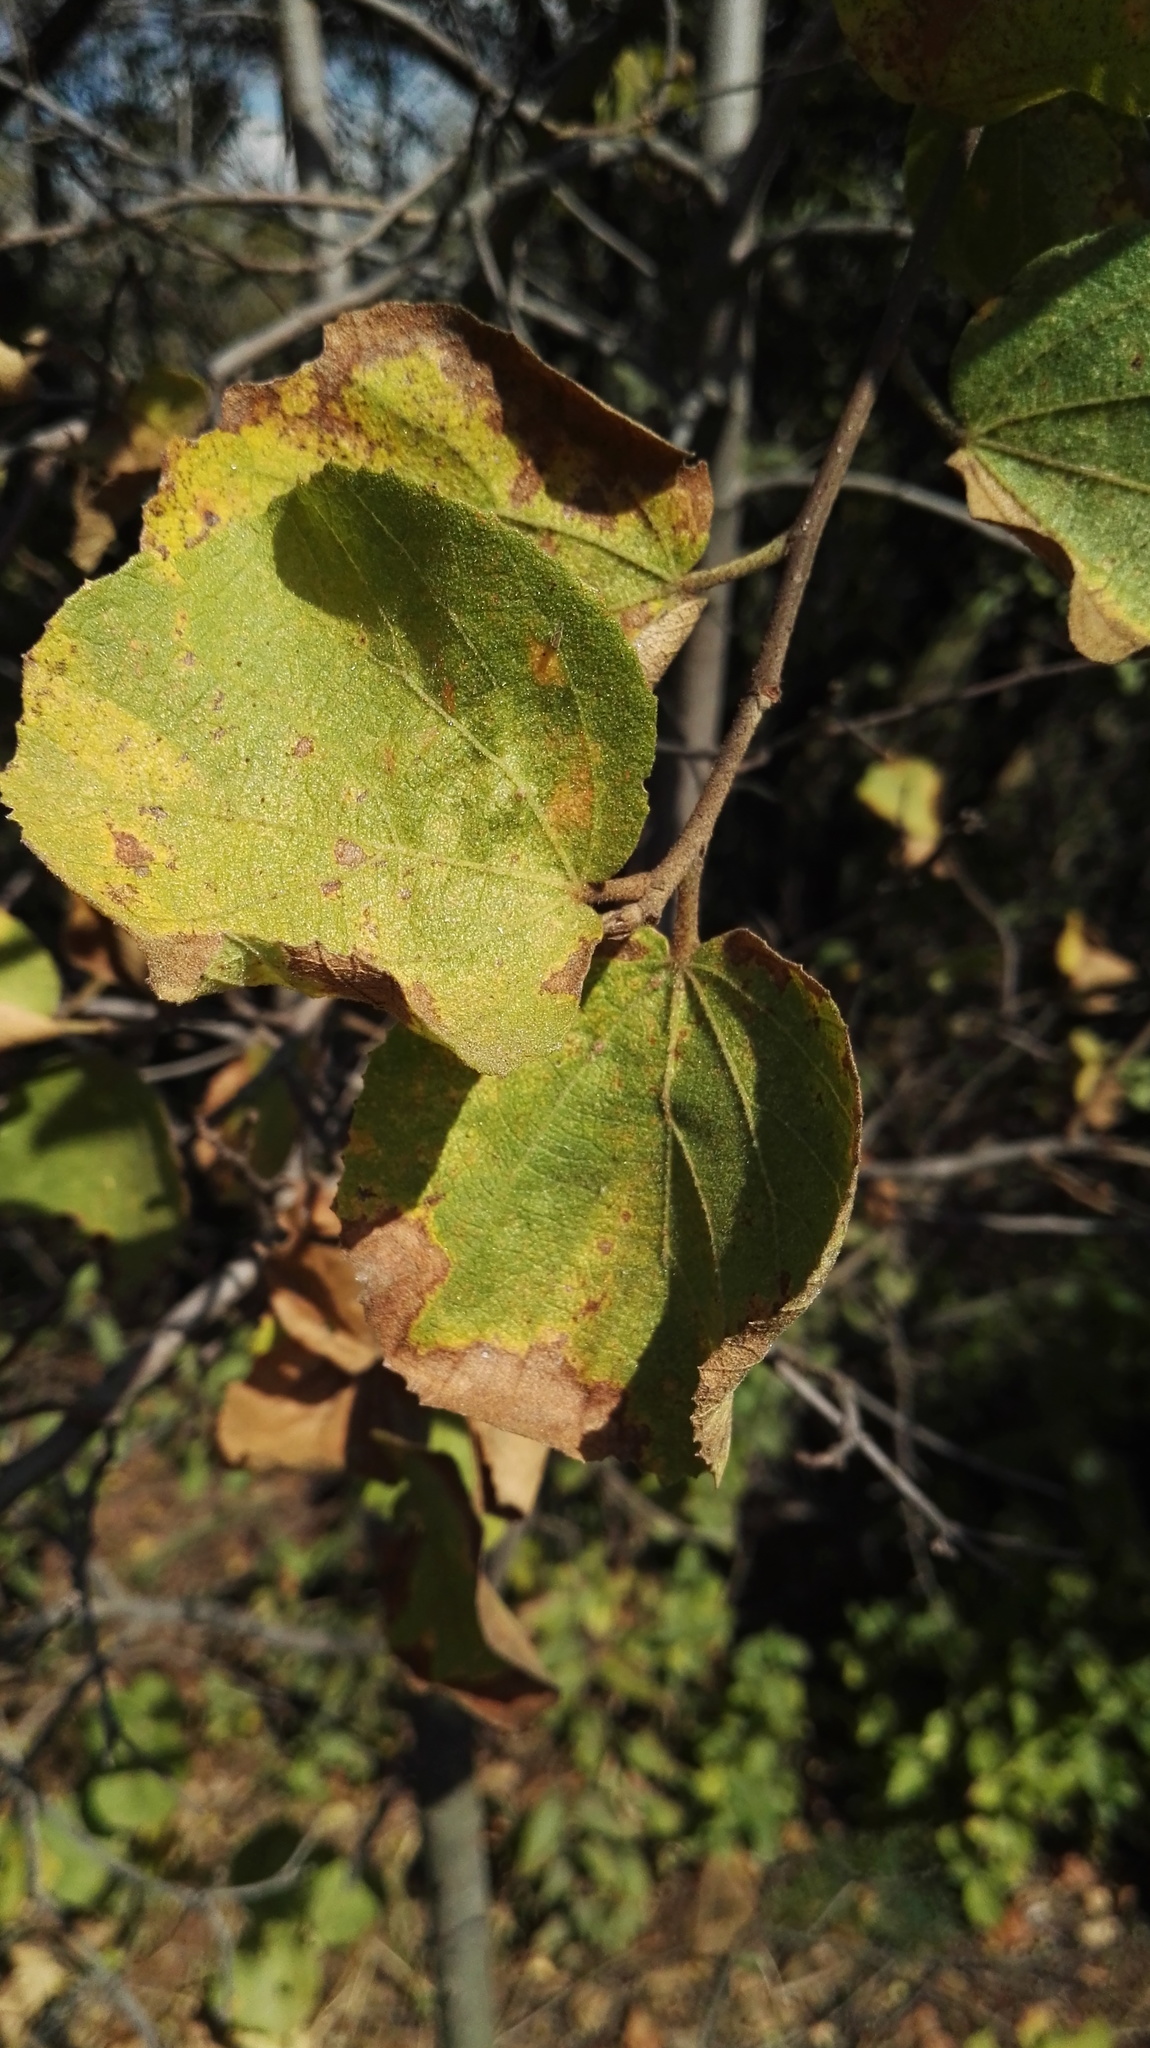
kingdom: Plantae
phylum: Tracheophyta
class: Magnoliopsida
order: Malvales
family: Malvaceae
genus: Dombeya
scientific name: Dombeya rotundifolia
